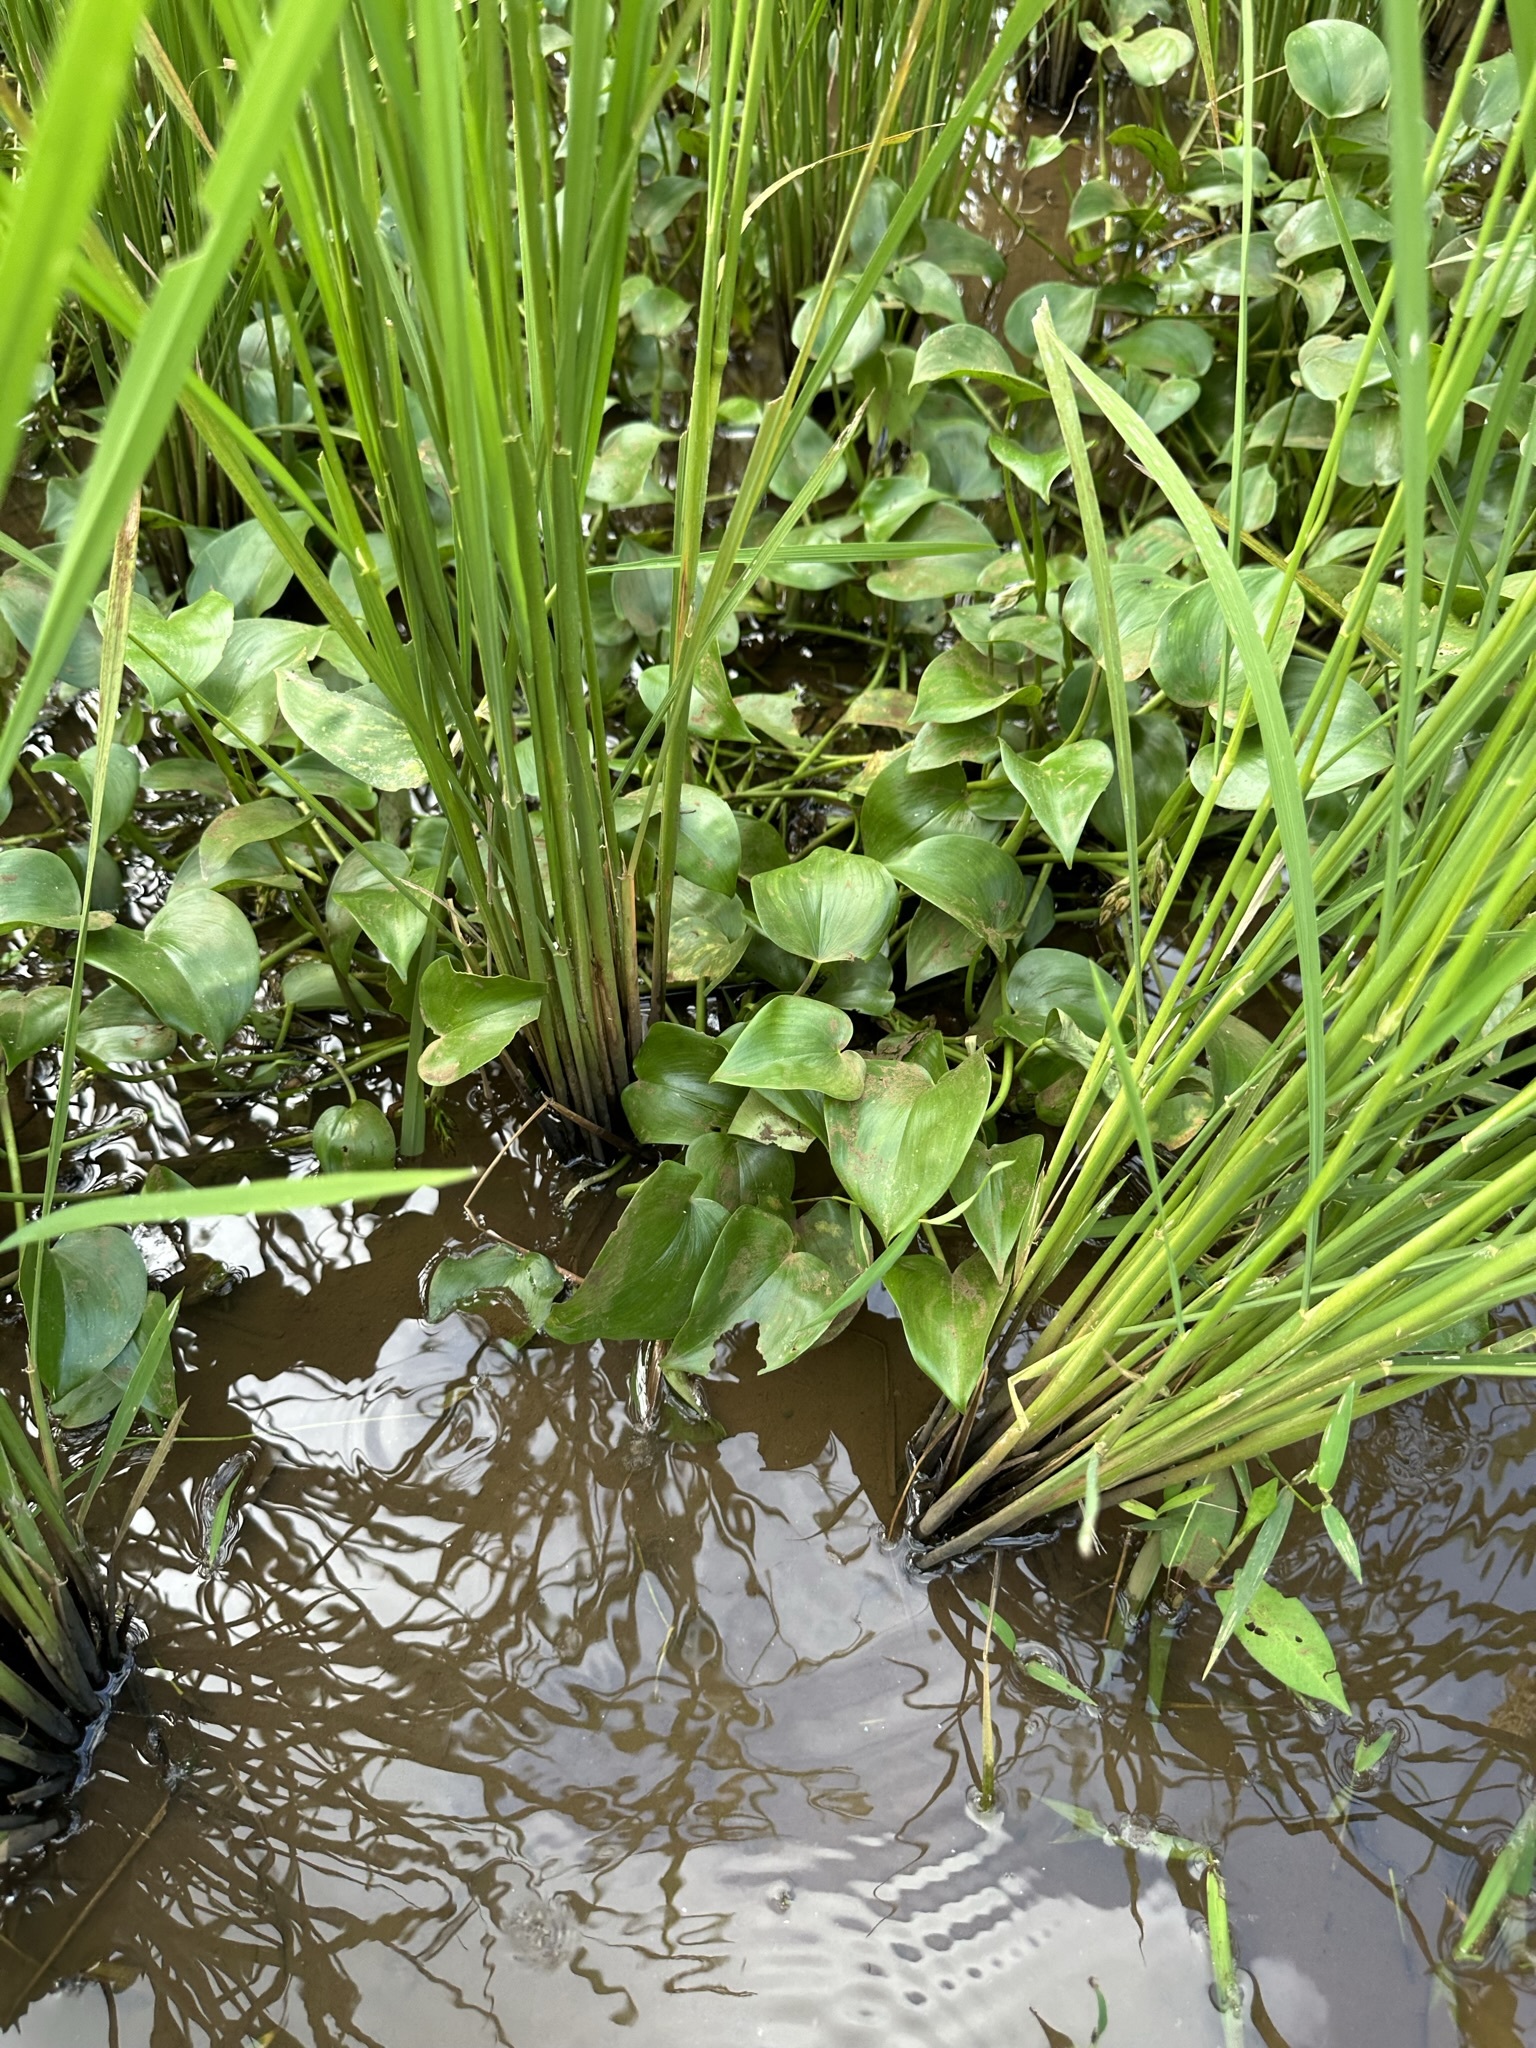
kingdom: Plantae
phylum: Tracheophyta
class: Liliopsida
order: Commelinales
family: Pontederiaceae
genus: Pontederia
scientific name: Pontederia vaginalis
